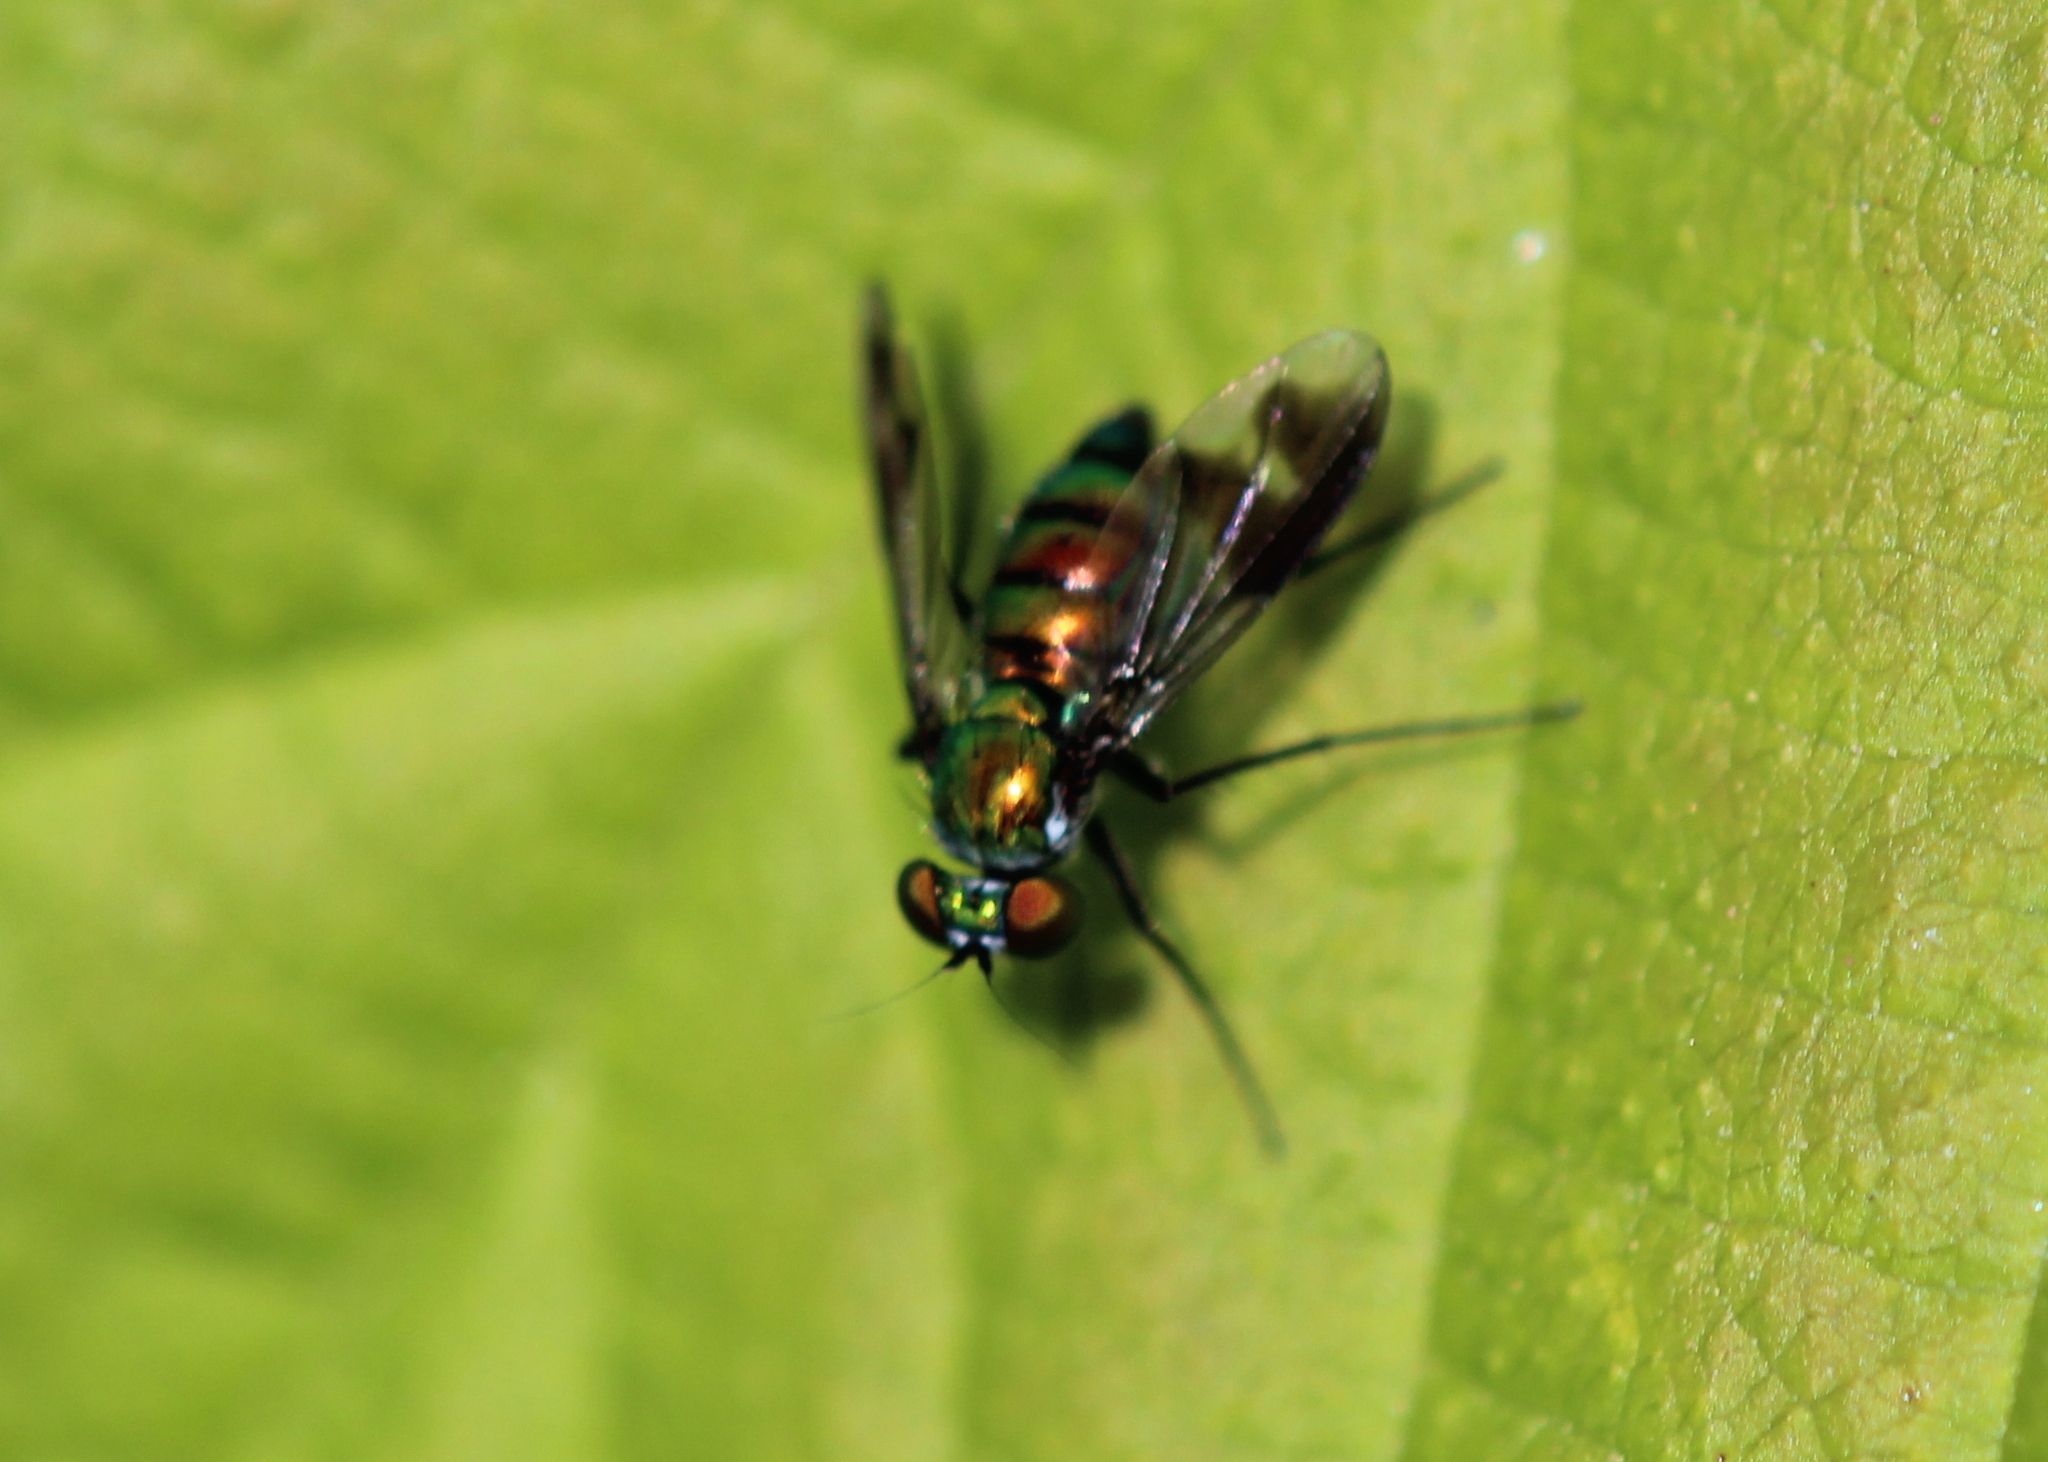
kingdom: Animalia
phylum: Arthropoda
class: Insecta
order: Diptera
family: Dolichopodidae
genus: Condylostylus
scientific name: Condylostylus patibulatus
